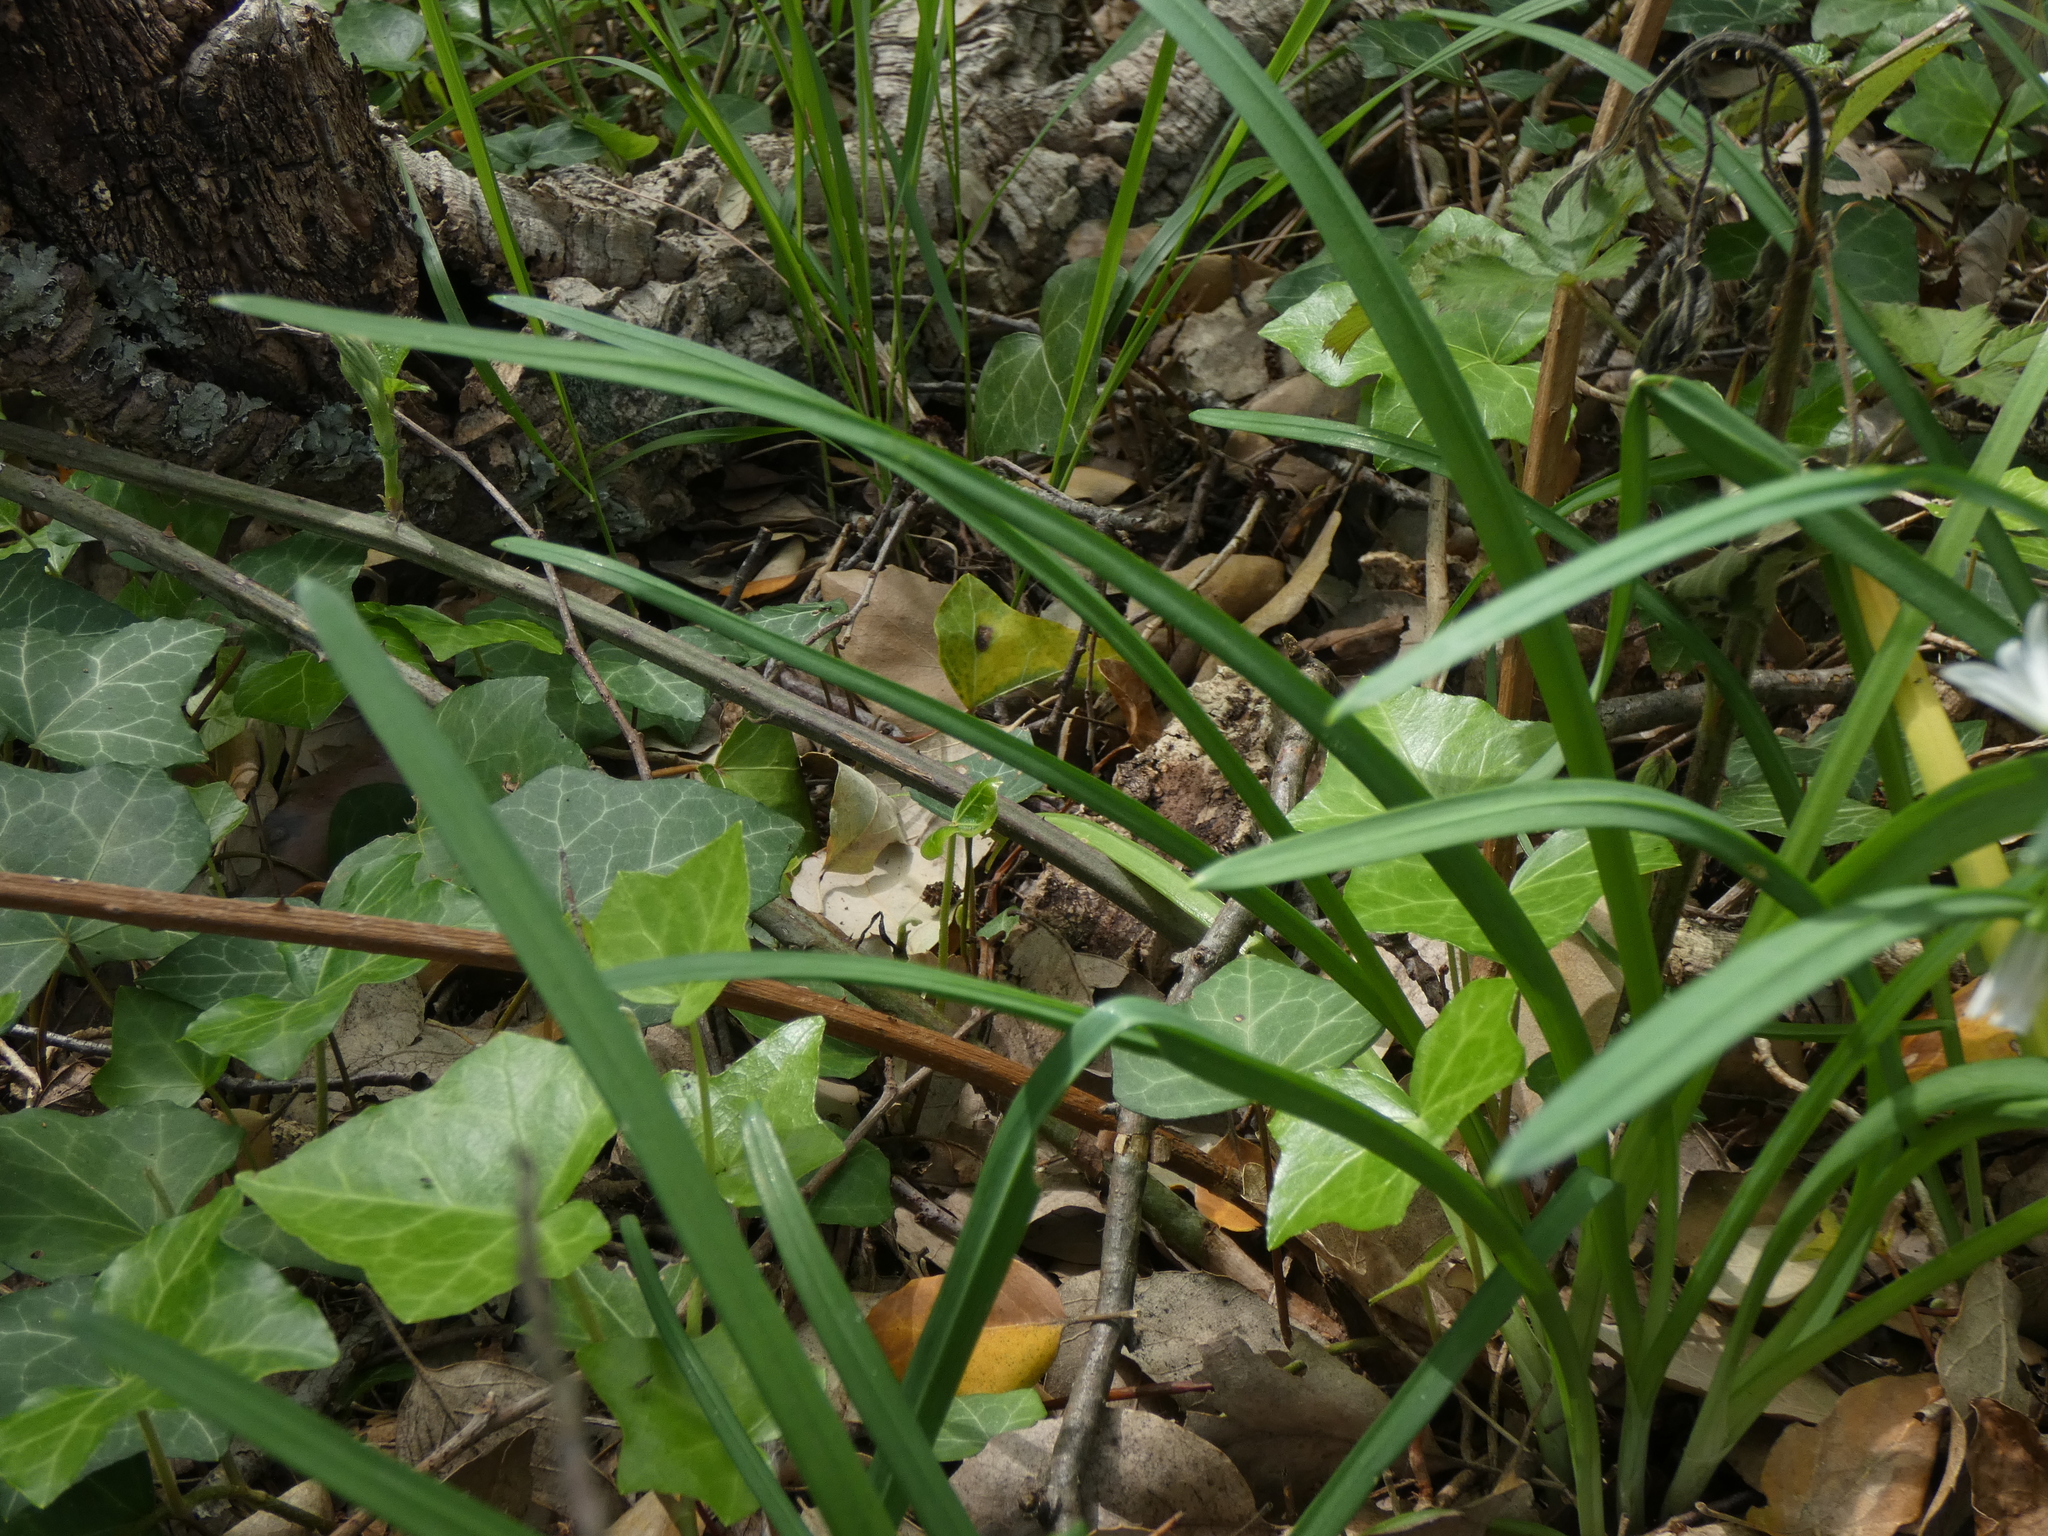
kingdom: Plantae
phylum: Tracheophyta
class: Liliopsida
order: Asparagales
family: Amaryllidaceae
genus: Allium
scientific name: Allium triquetrum
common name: Three-cornered garlic
